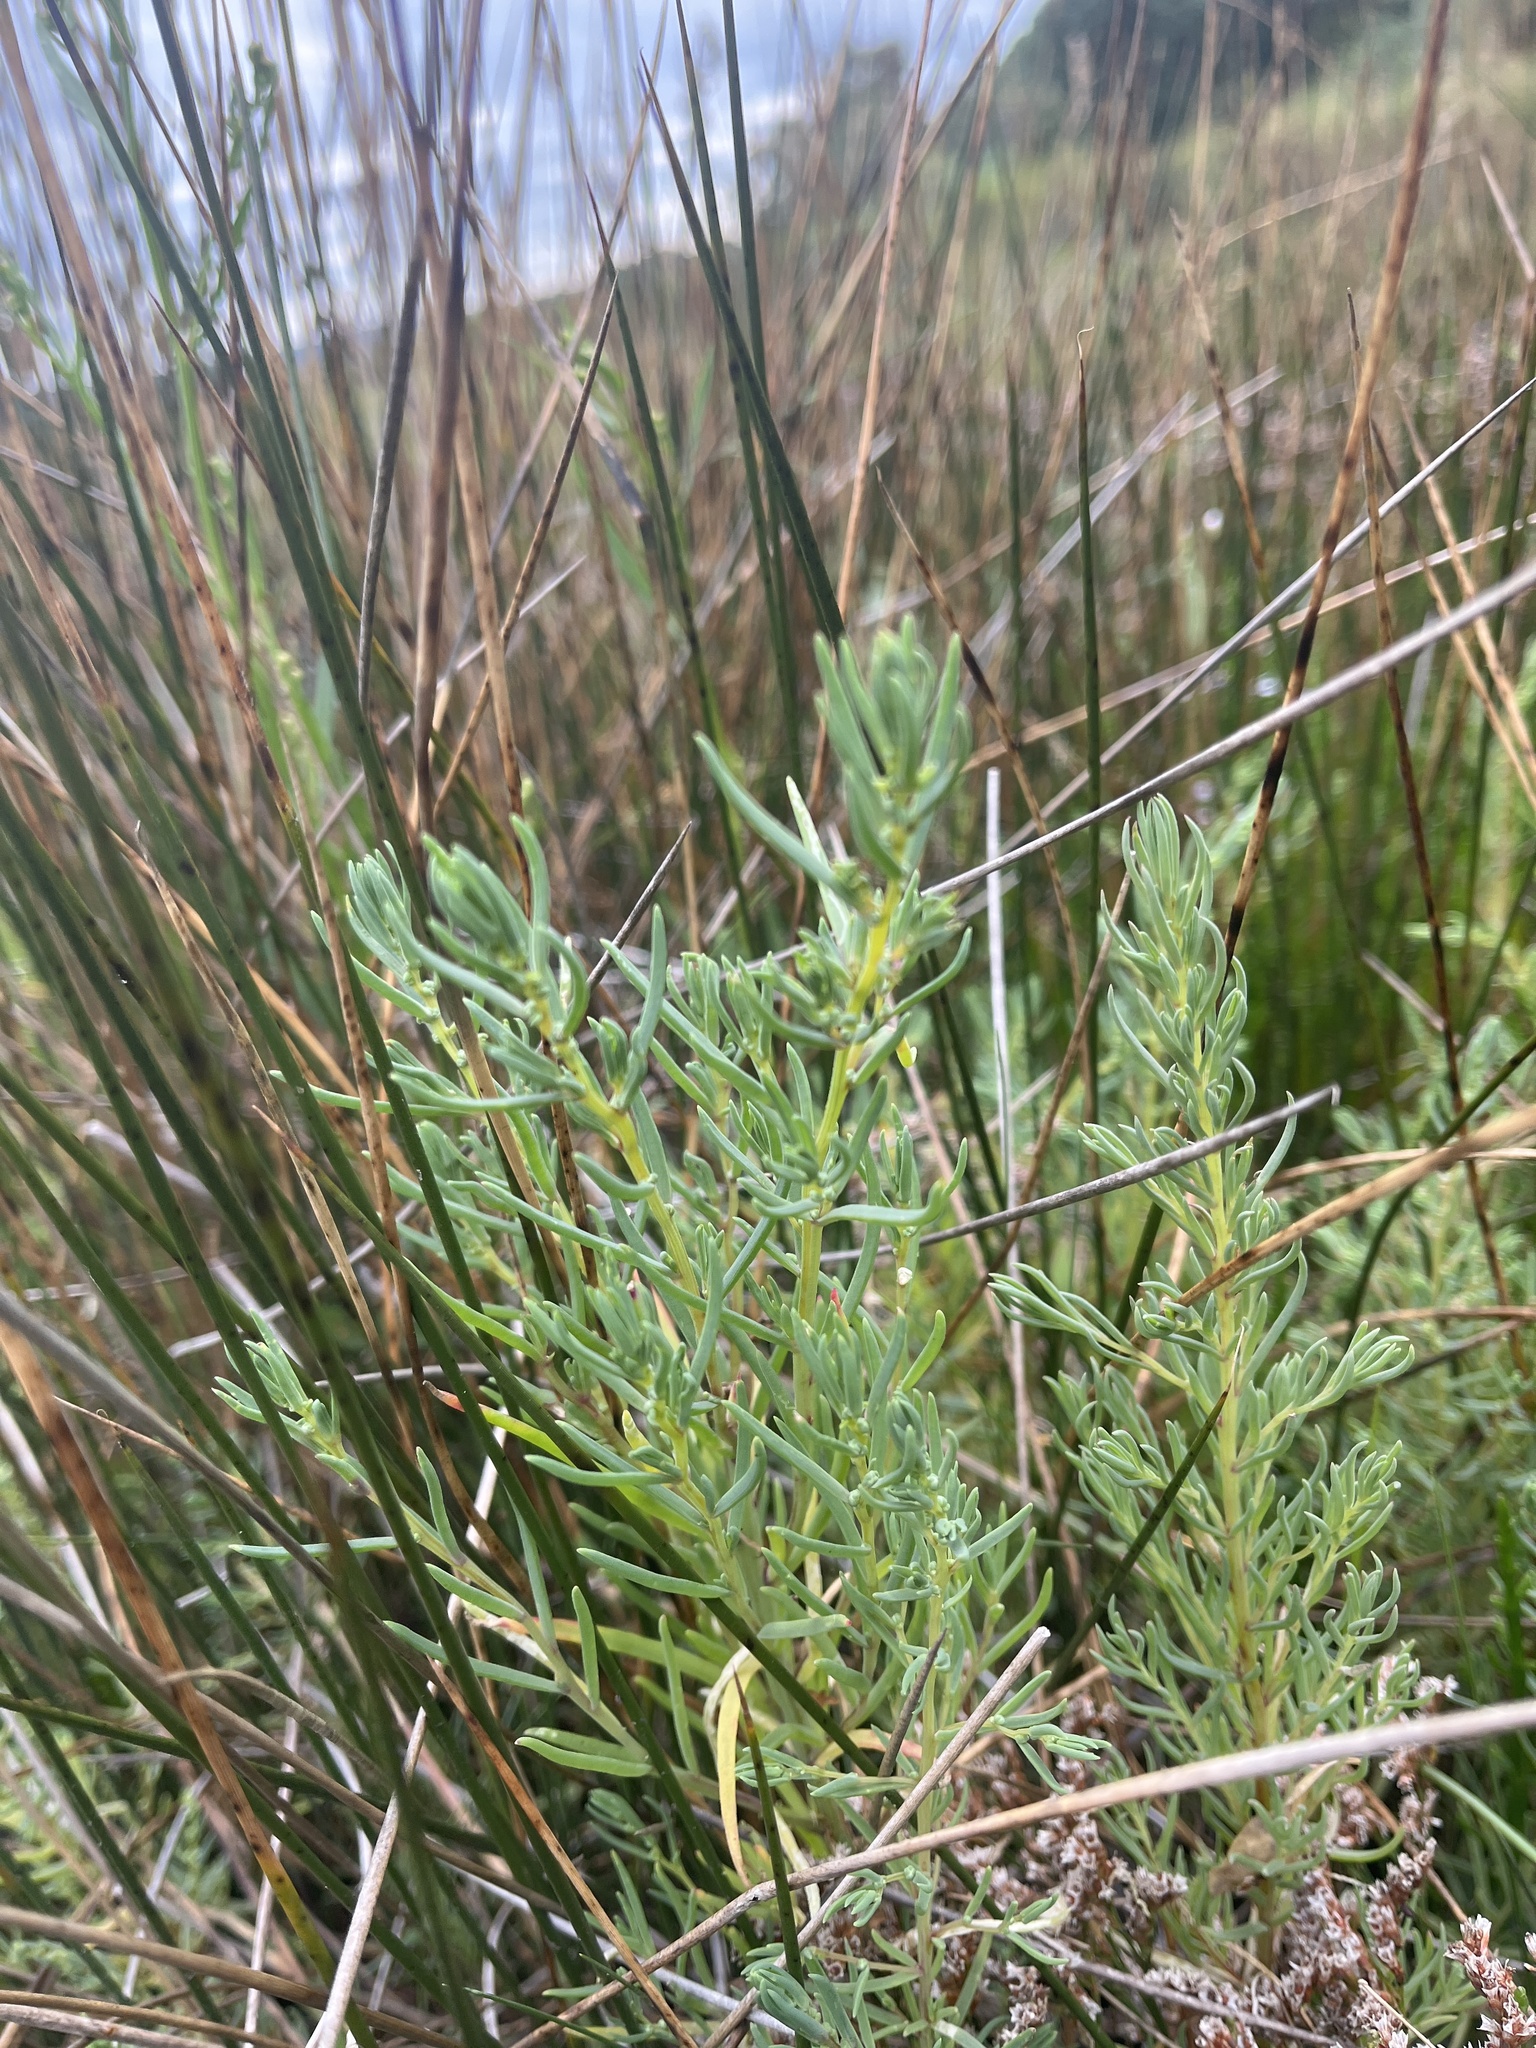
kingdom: Plantae
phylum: Tracheophyta
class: Magnoliopsida
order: Caryophyllales
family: Amaranthaceae
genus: Suaeda
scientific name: Suaeda maritima
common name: Annual sea-blite
